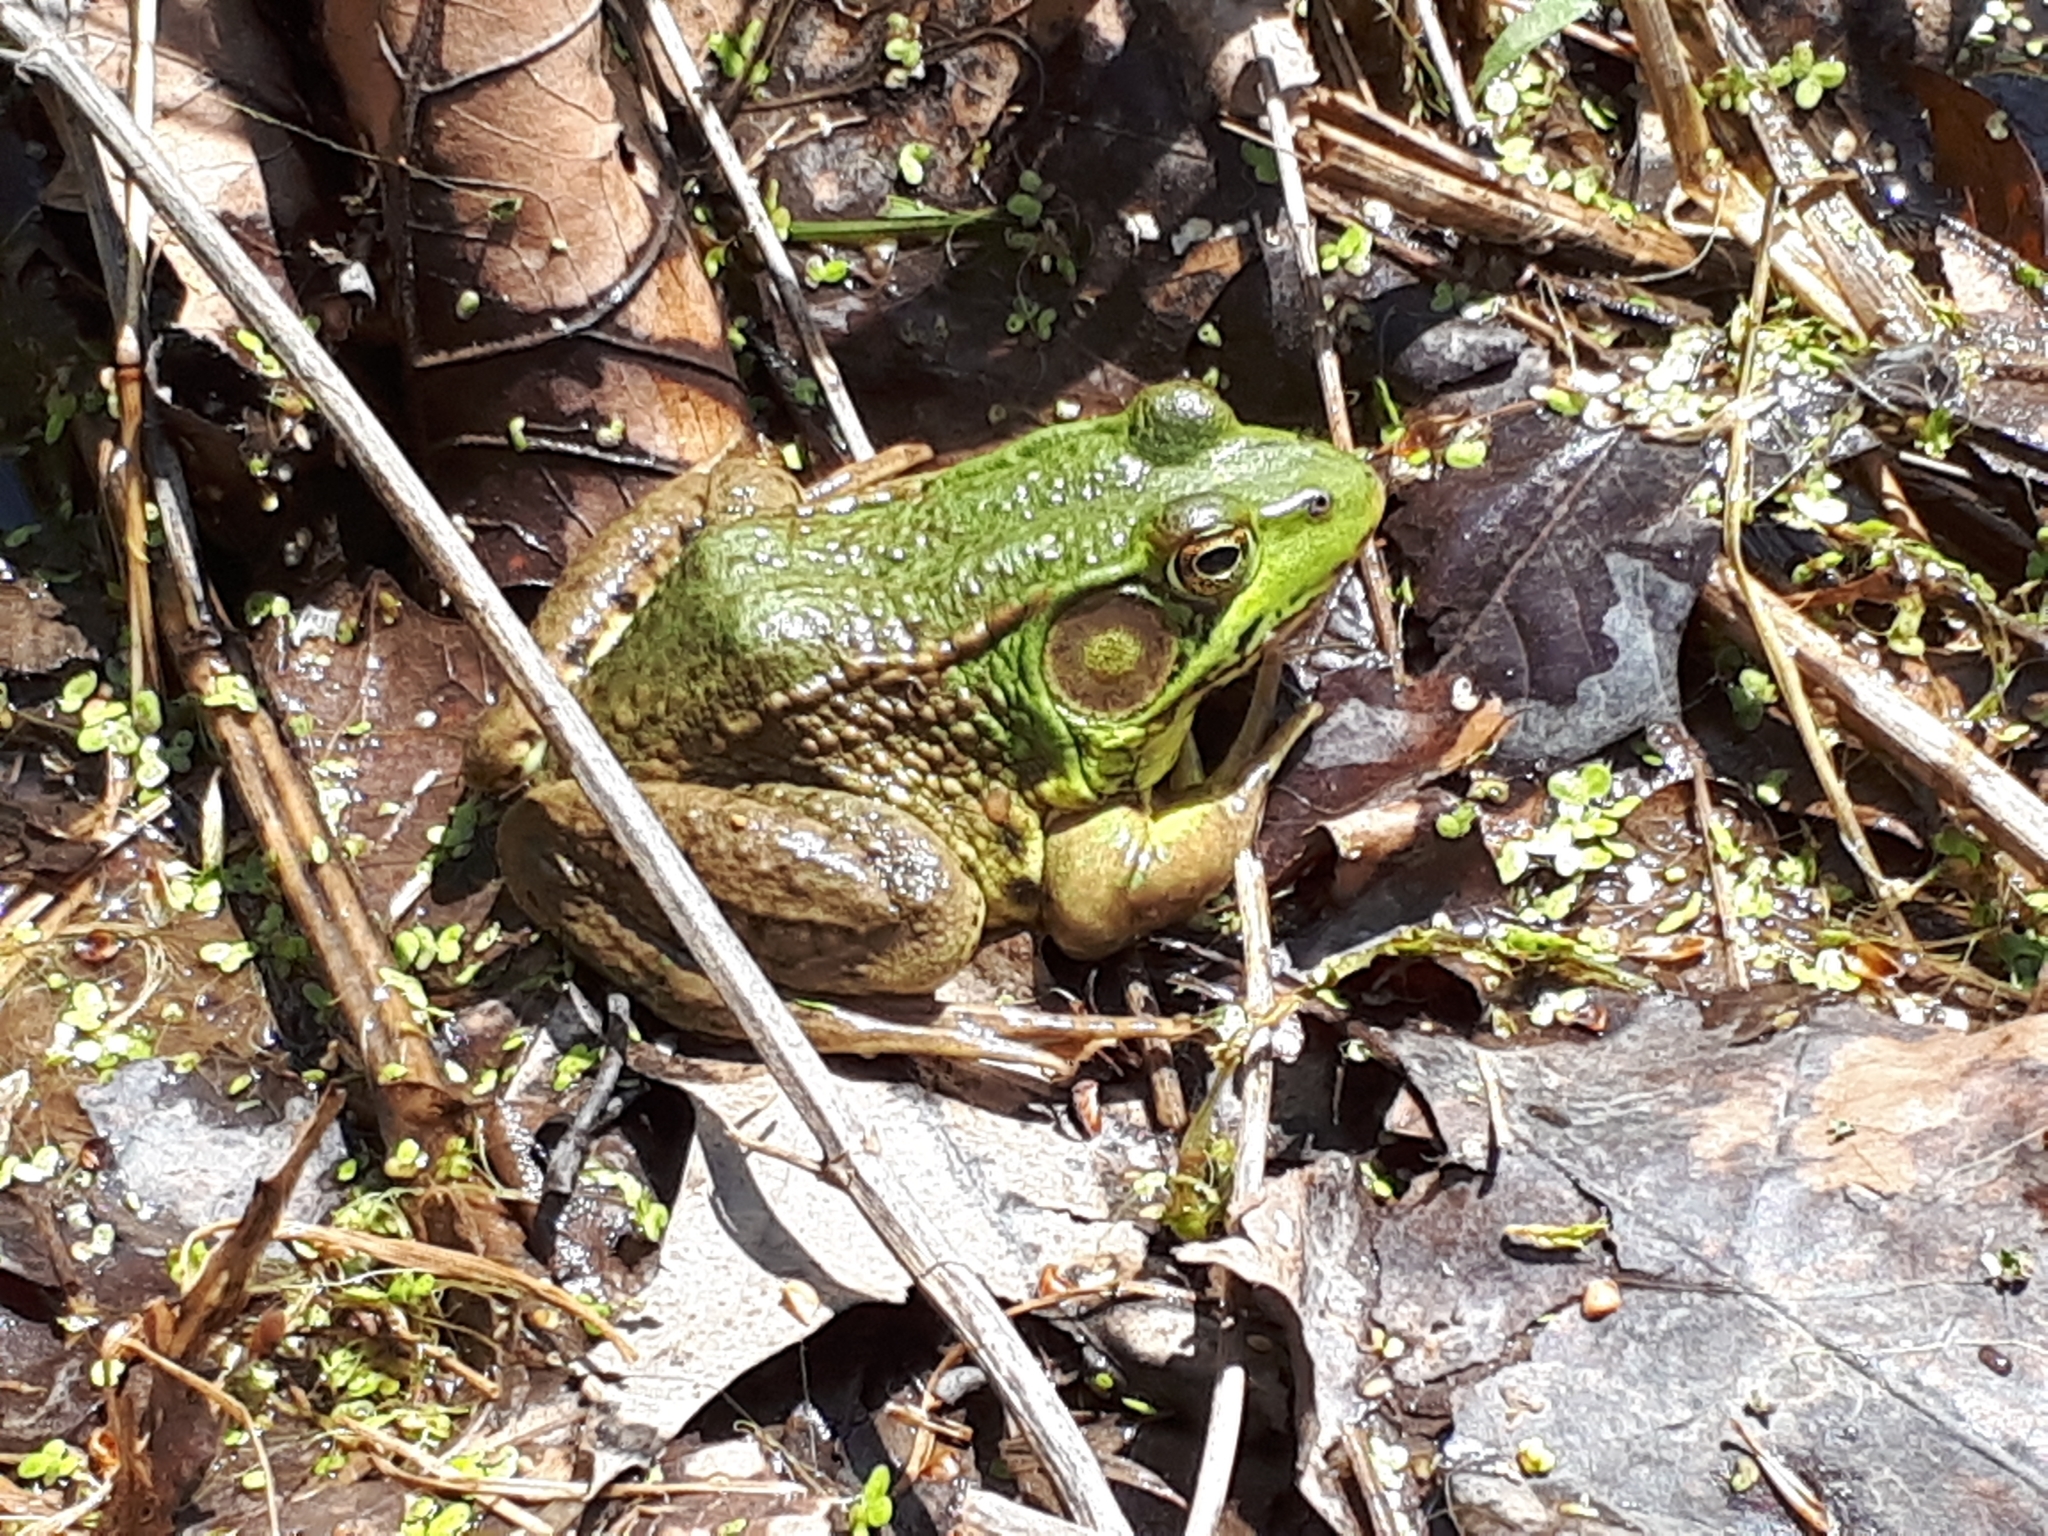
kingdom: Animalia
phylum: Chordata
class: Amphibia
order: Anura
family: Ranidae
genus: Lithobates
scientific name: Lithobates clamitans
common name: Green frog
